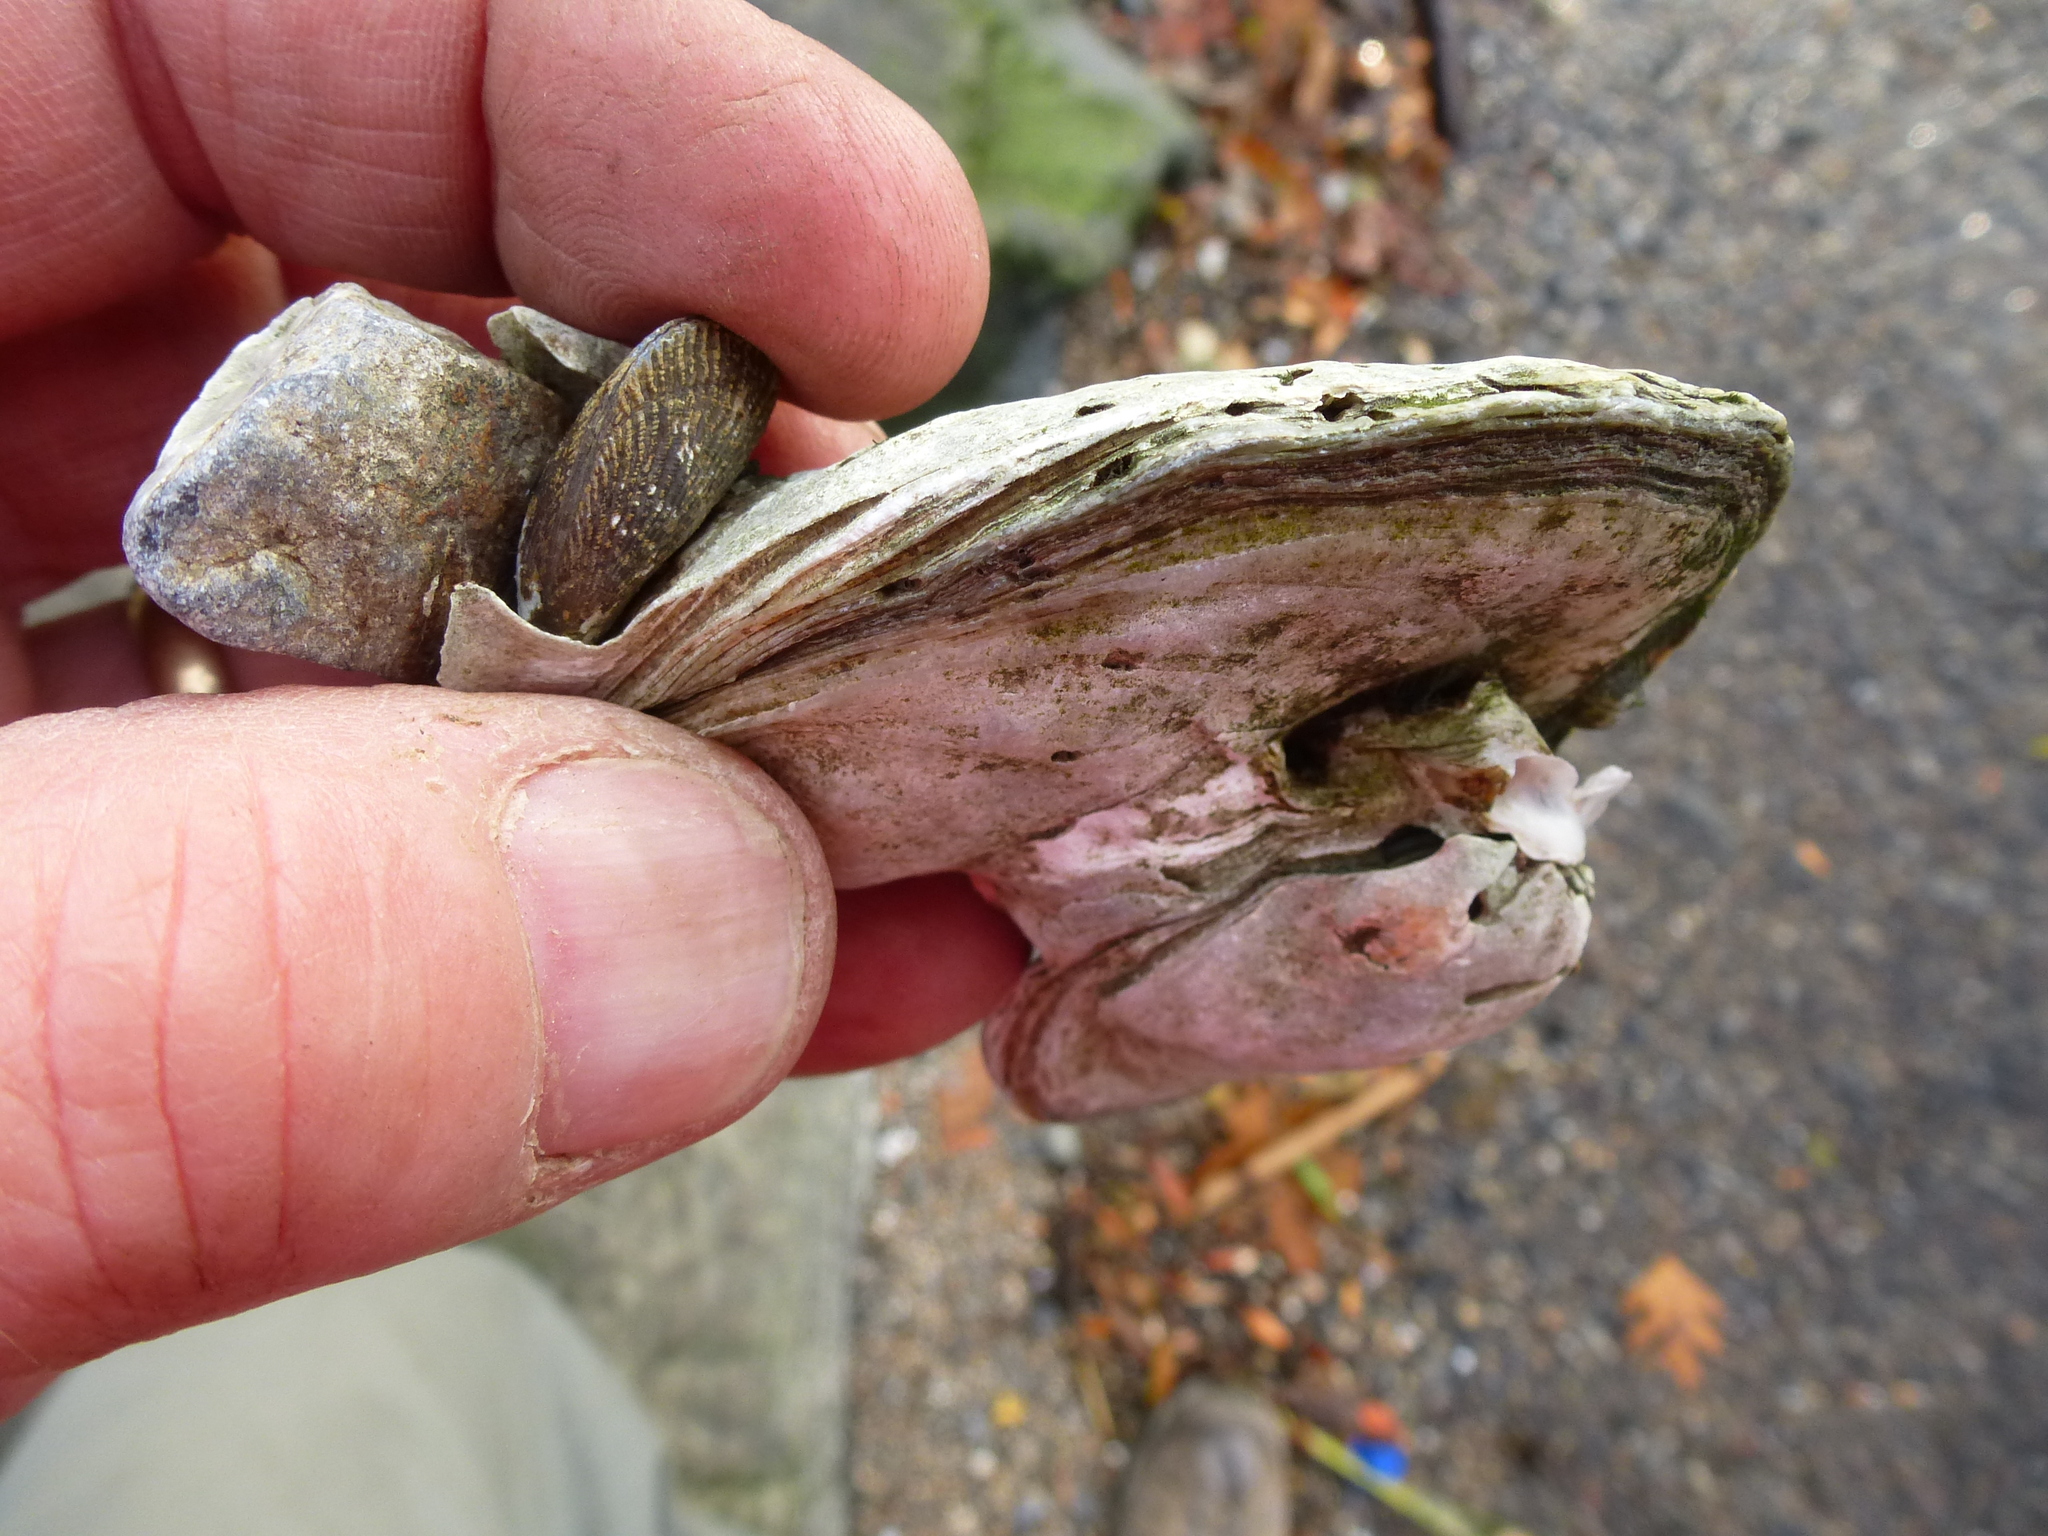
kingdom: Animalia
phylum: Mollusca
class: Bivalvia
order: Ostreida
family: Ostreidae
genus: Crassostrea
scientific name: Crassostrea virginica
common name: American oyster
